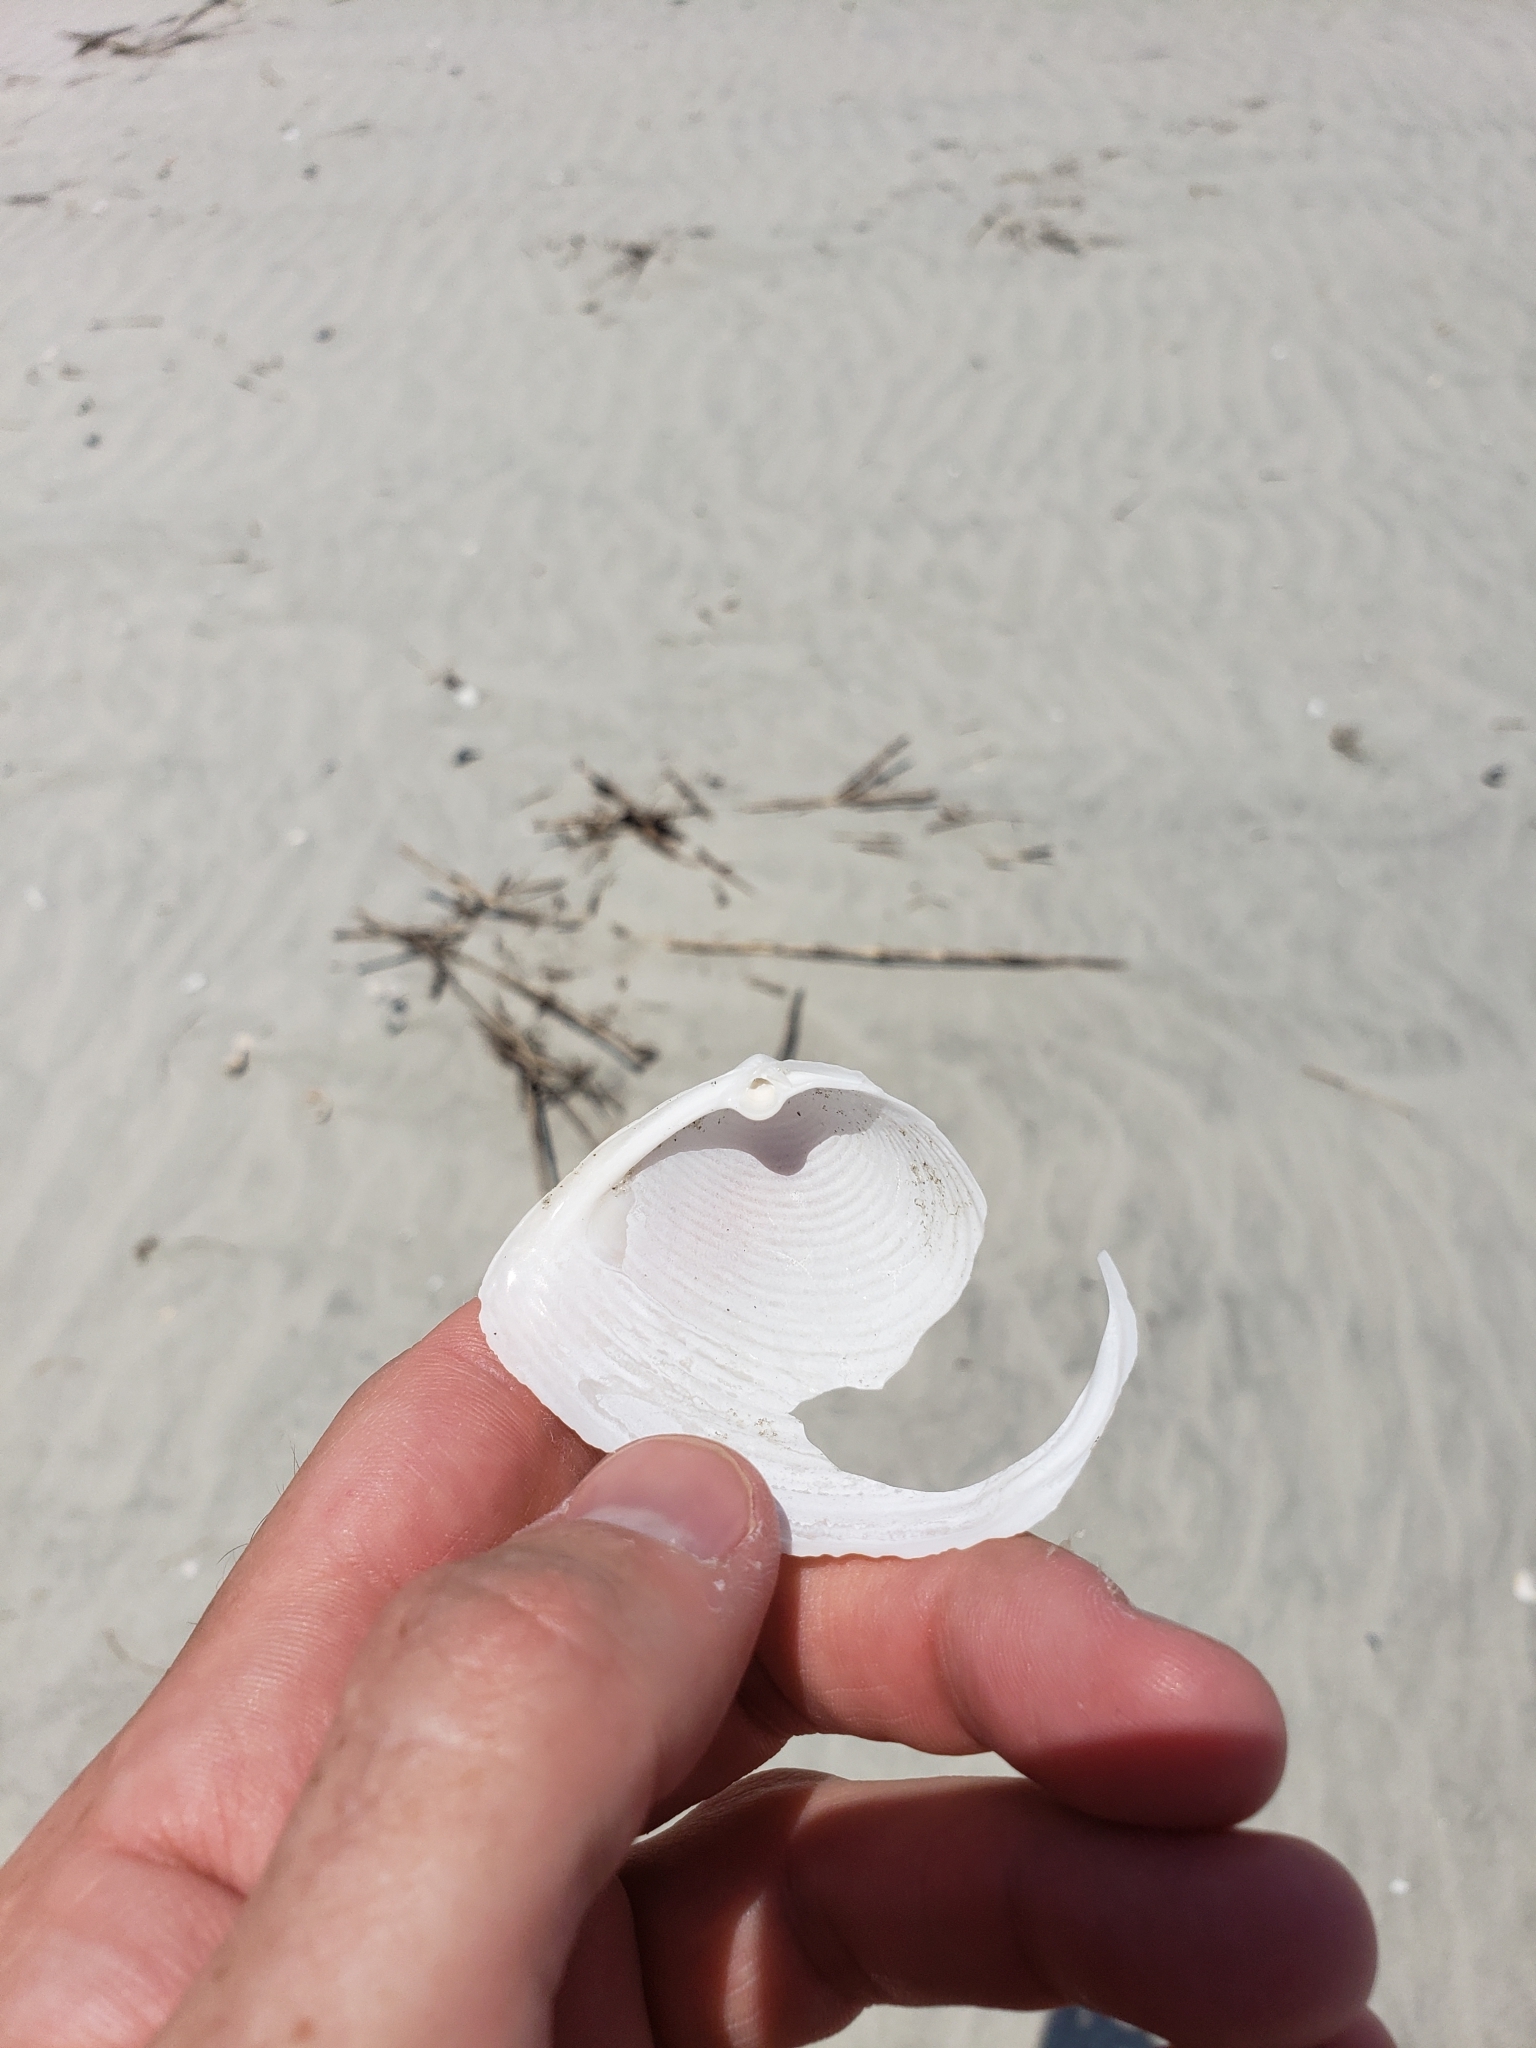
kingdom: Animalia
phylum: Mollusca
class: Bivalvia
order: Venerida
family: Anatinellidae
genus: Raeta
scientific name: Raeta plicatella
